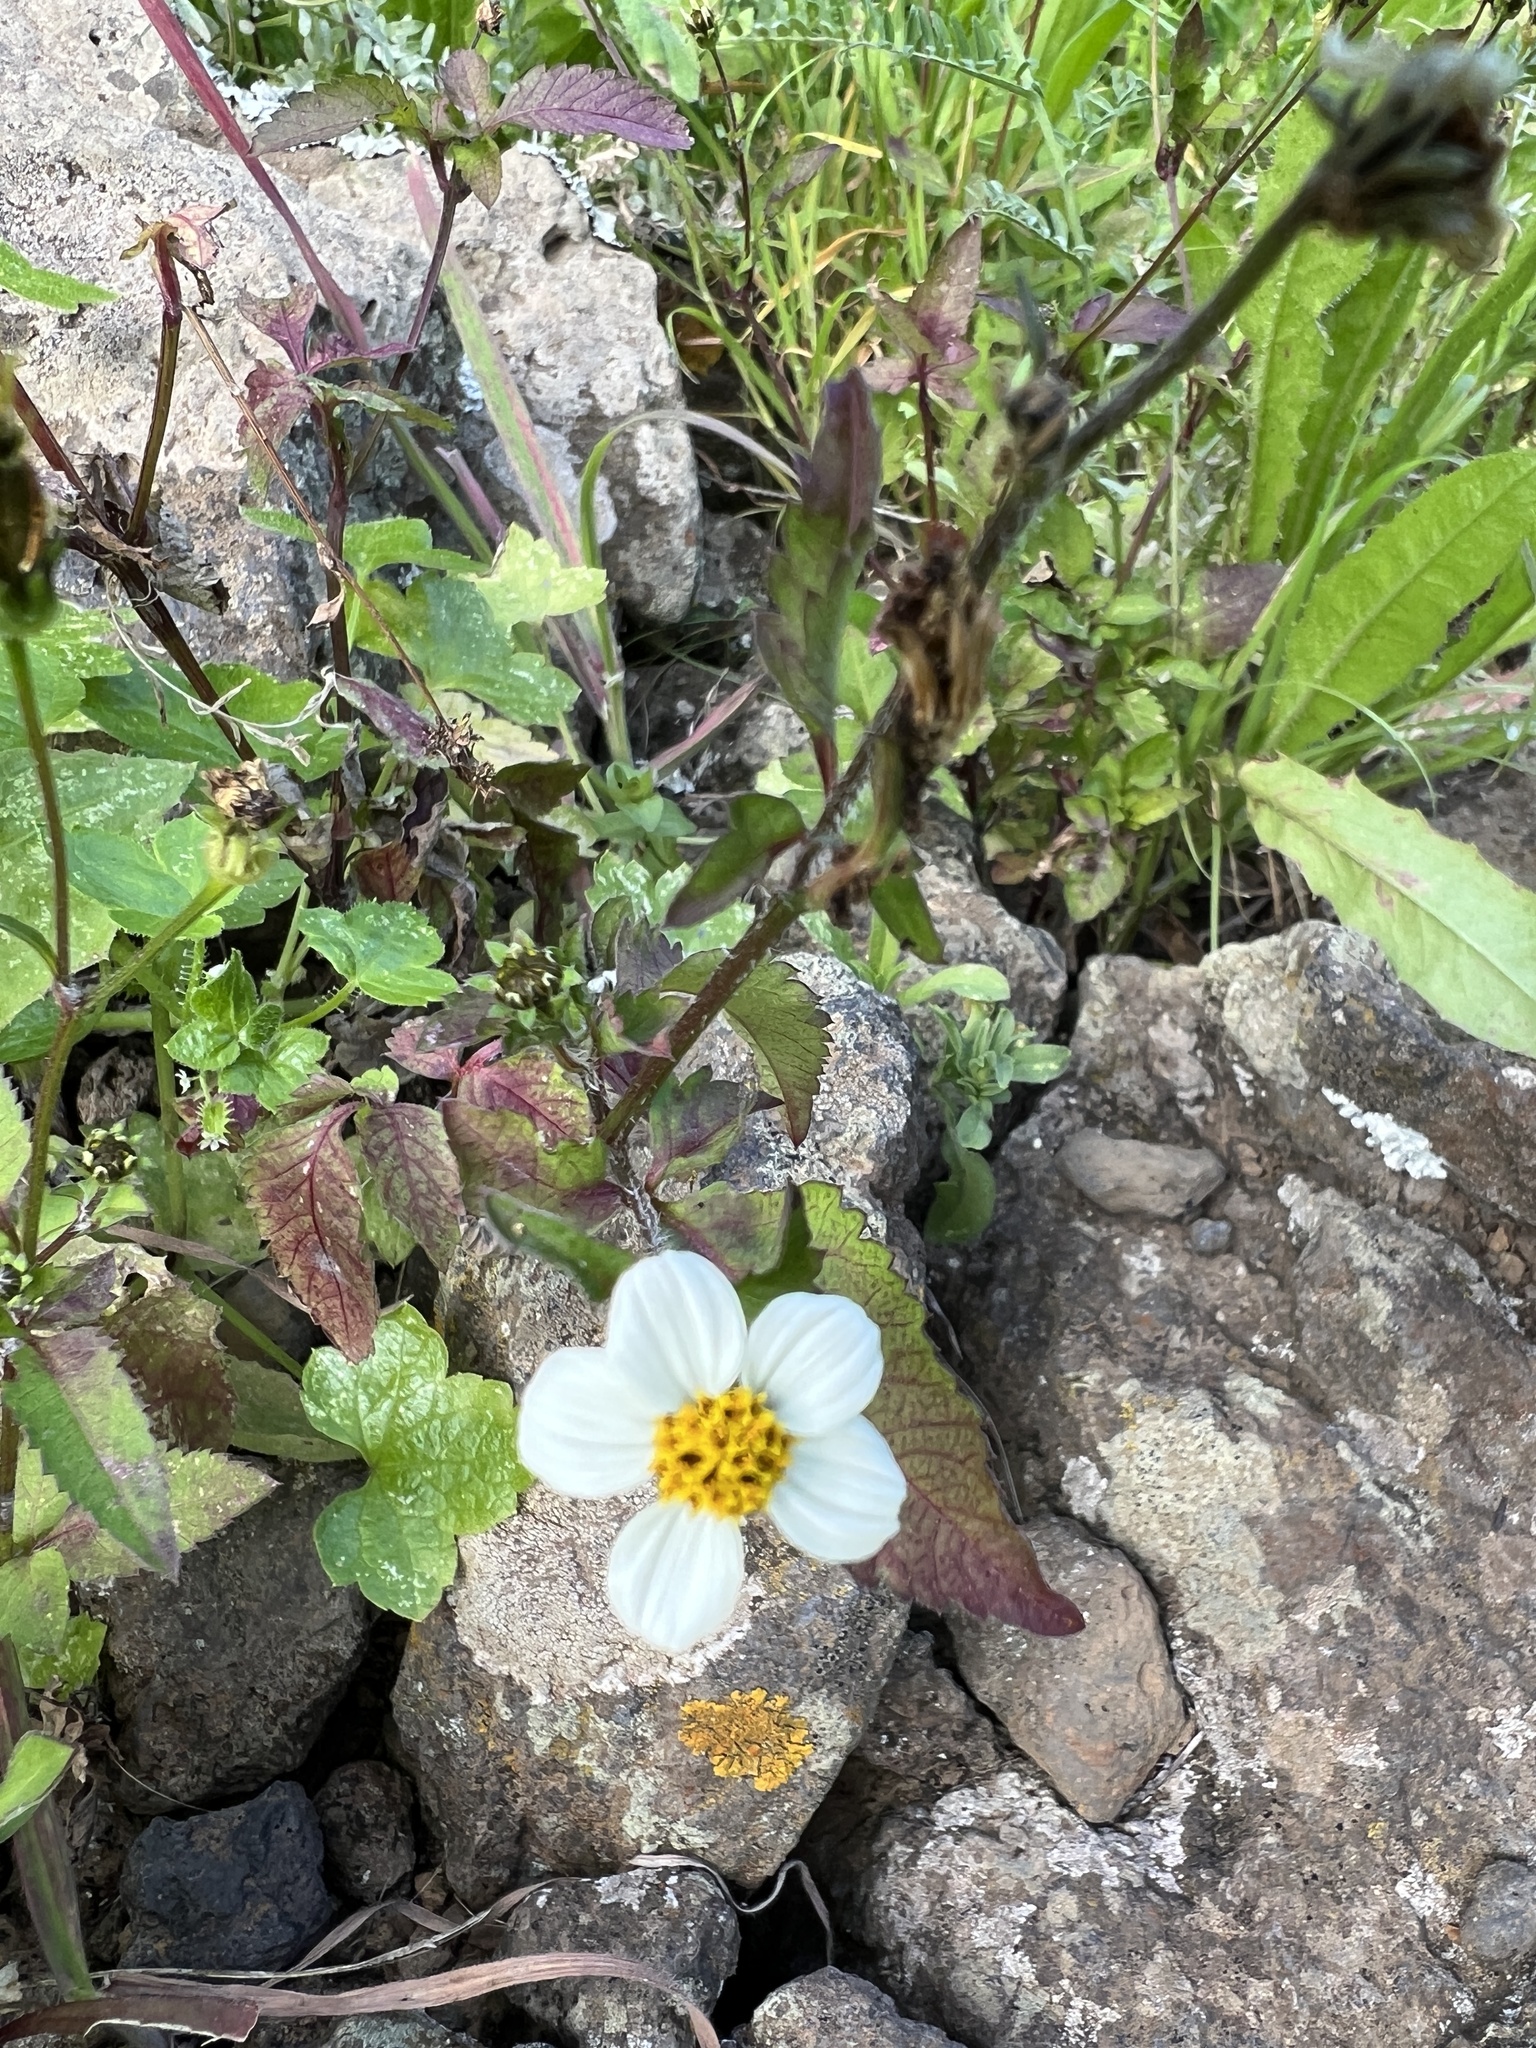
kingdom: Plantae
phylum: Tracheophyta
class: Magnoliopsida
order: Asterales
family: Asteraceae
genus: Bidens
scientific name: Bidens pilosa
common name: Black-jack
